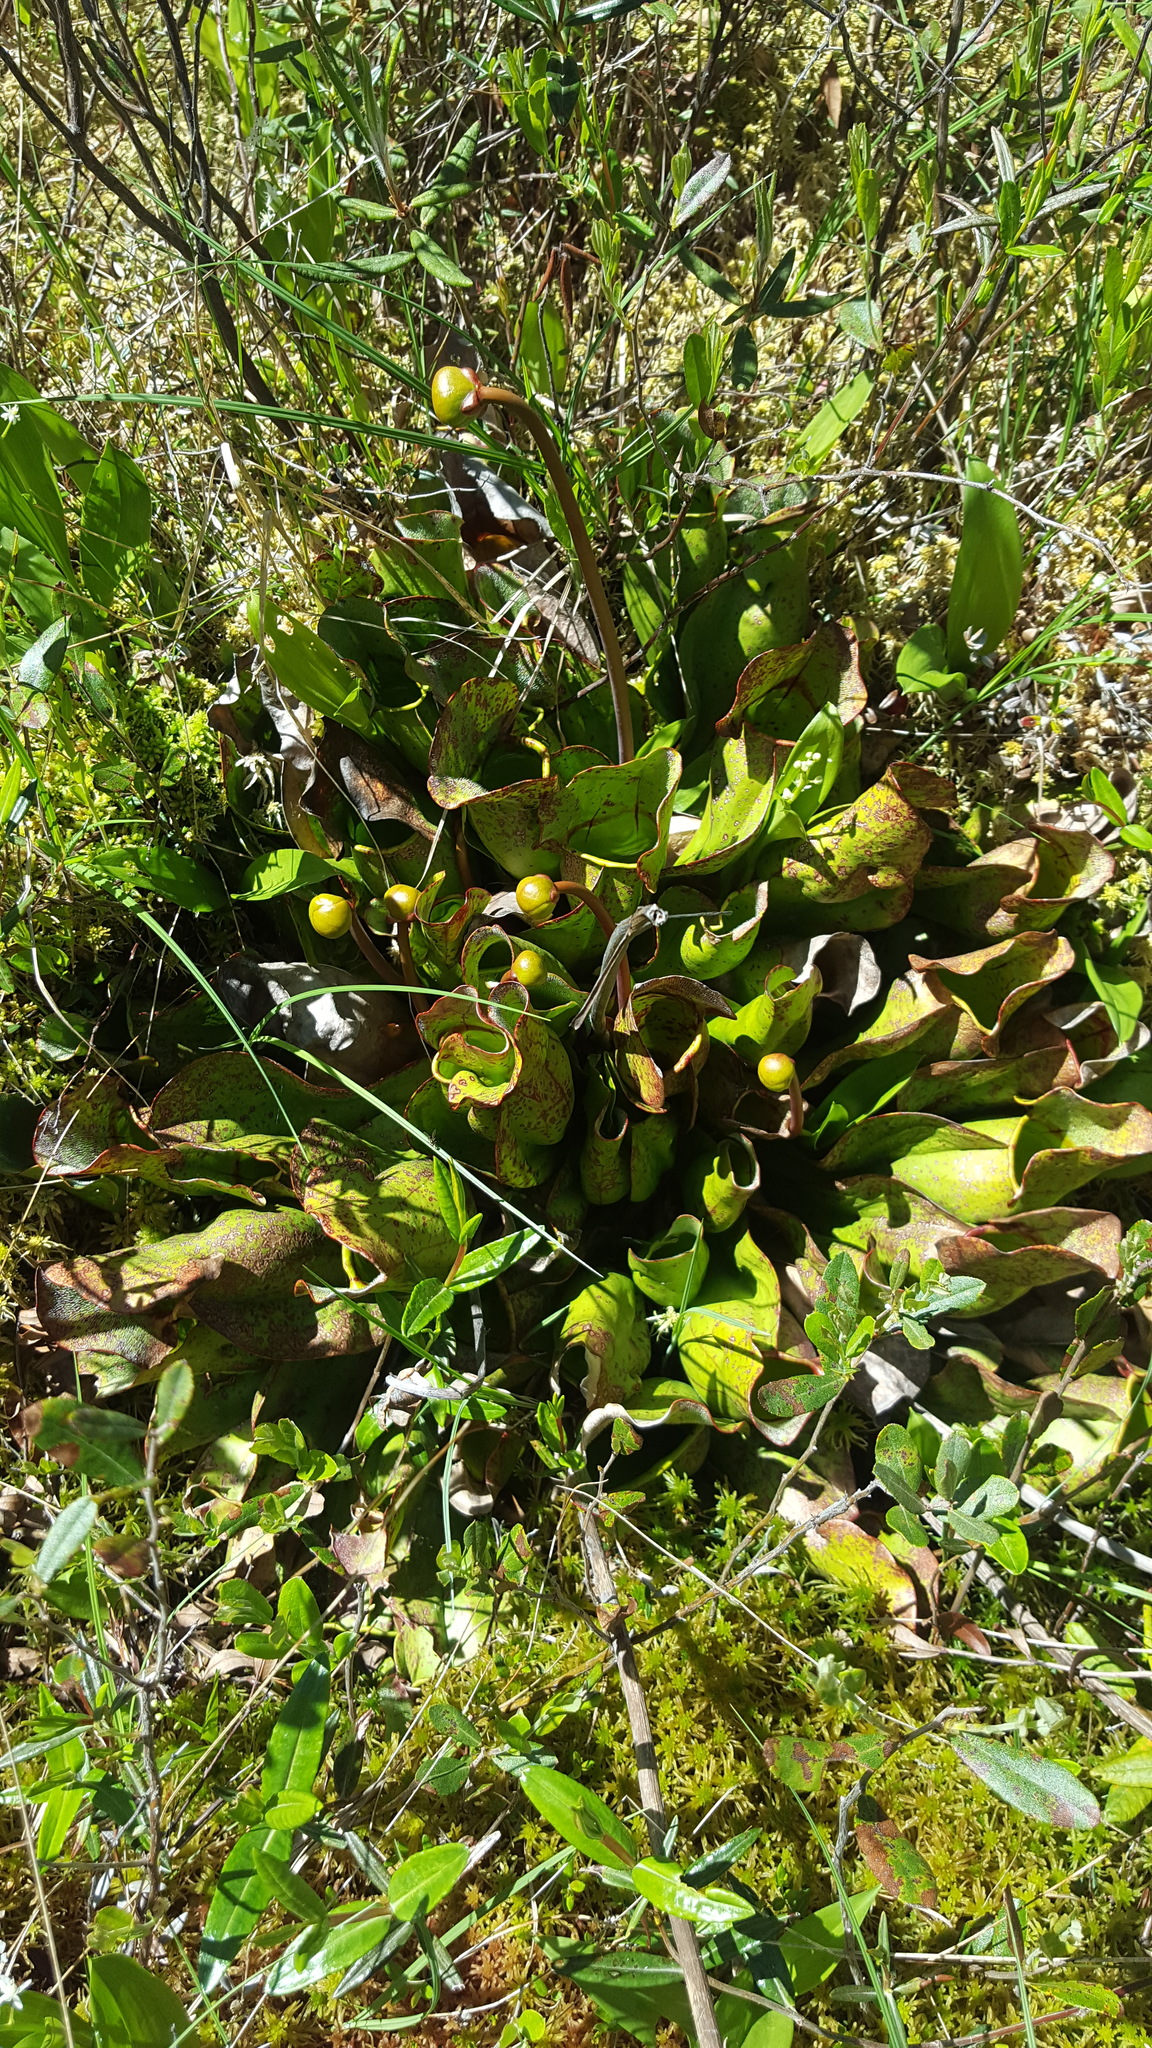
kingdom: Plantae
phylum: Tracheophyta
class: Magnoliopsida
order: Ericales
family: Sarraceniaceae
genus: Sarracenia
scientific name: Sarracenia purpurea
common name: Pitcherplant
